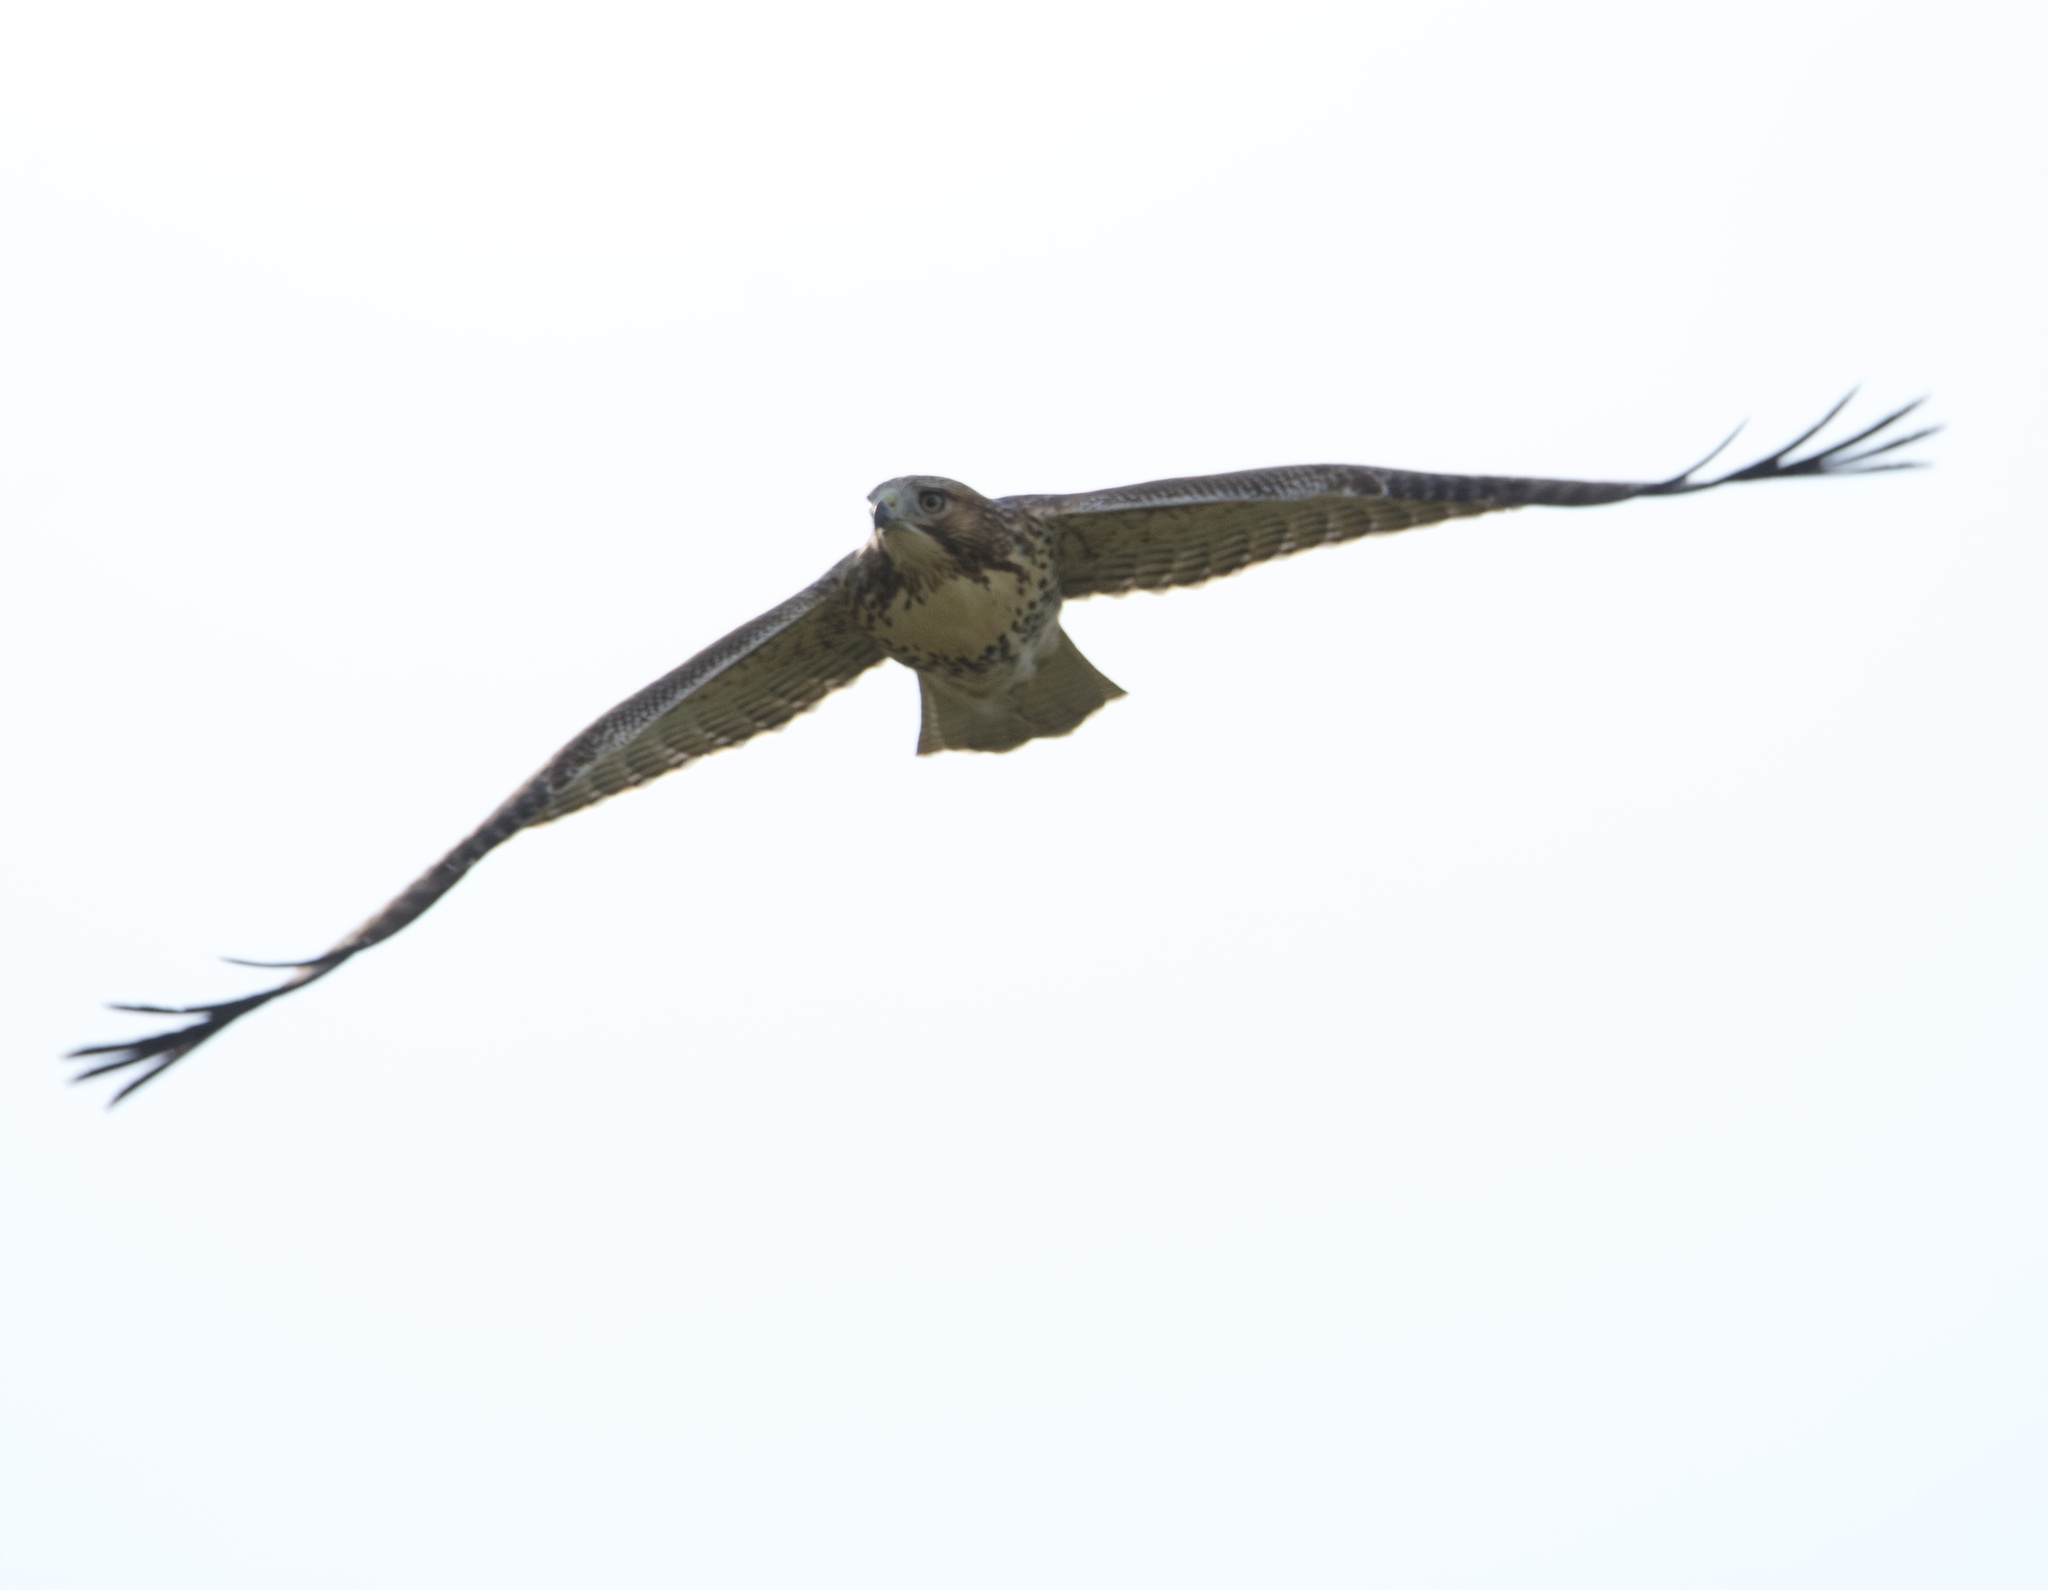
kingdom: Animalia
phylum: Chordata
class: Aves
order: Accipitriformes
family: Accipitridae
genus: Buteo
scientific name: Buteo jamaicensis
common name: Red-tailed hawk
